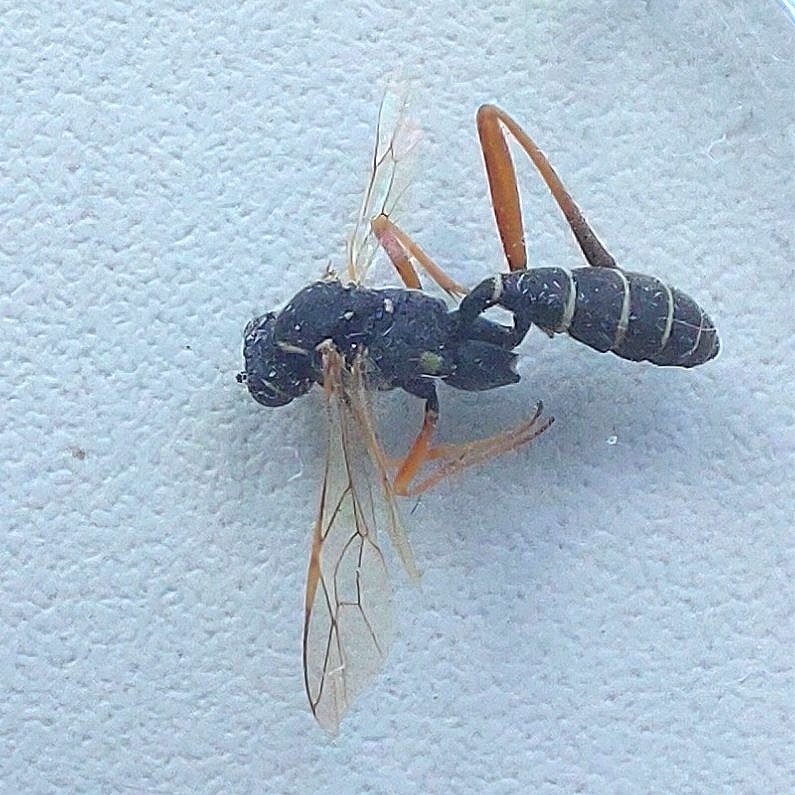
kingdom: Animalia
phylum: Arthropoda
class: Insecta
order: Hymenoptera
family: Ichneumonidae
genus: Latibulus
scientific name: Latibulus argiolus
